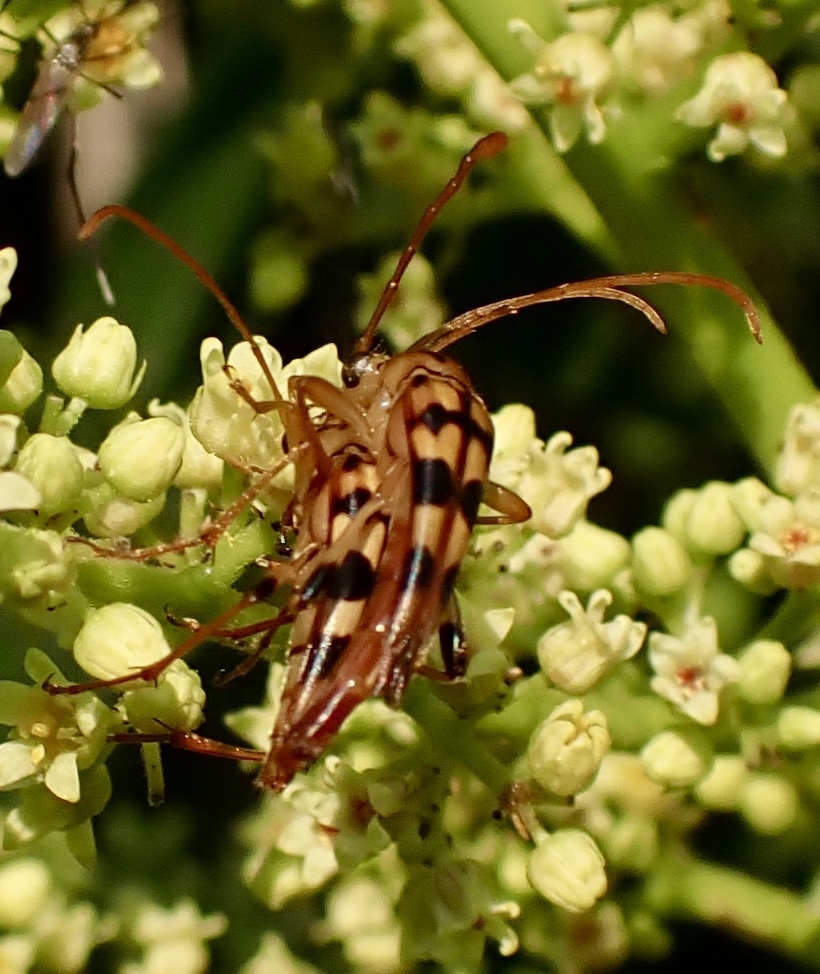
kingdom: Animalia
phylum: Arthropoda
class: Insecta
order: Coleoptera
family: Cerambycidae
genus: Strangalia
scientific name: Strangalia luteicornis
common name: Yellow-horned flower longhorn beetle
